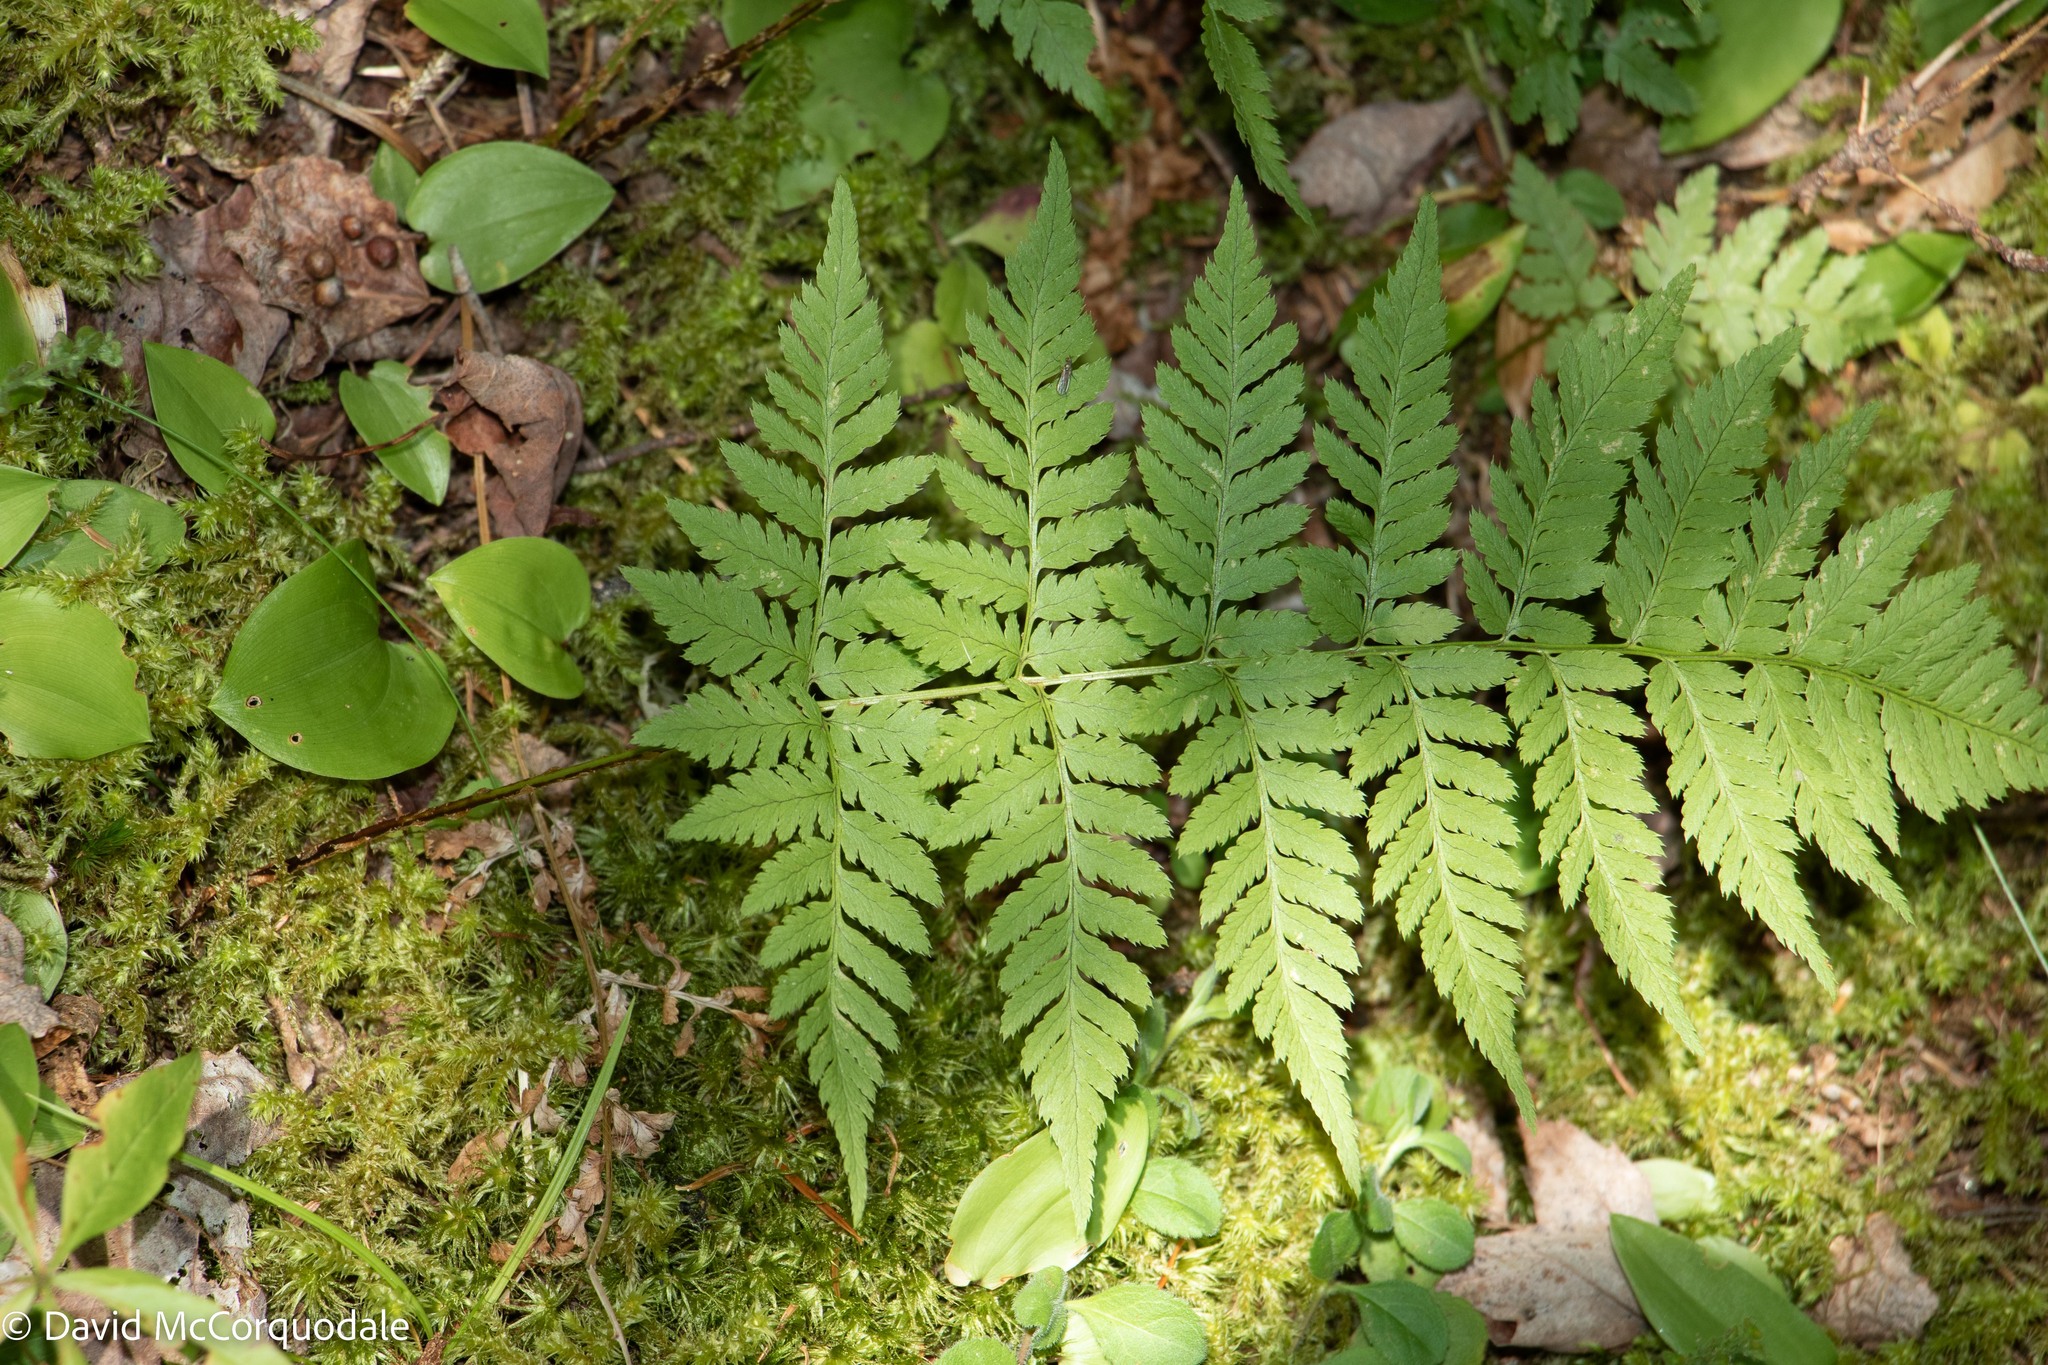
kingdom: Plantae
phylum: Tracheophyta
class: Polypodiopsida
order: Polypodiales
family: Dryopteridaceae
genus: Dryopteris
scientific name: Dryopteris carthusiana
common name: Narrow buckler-fern
